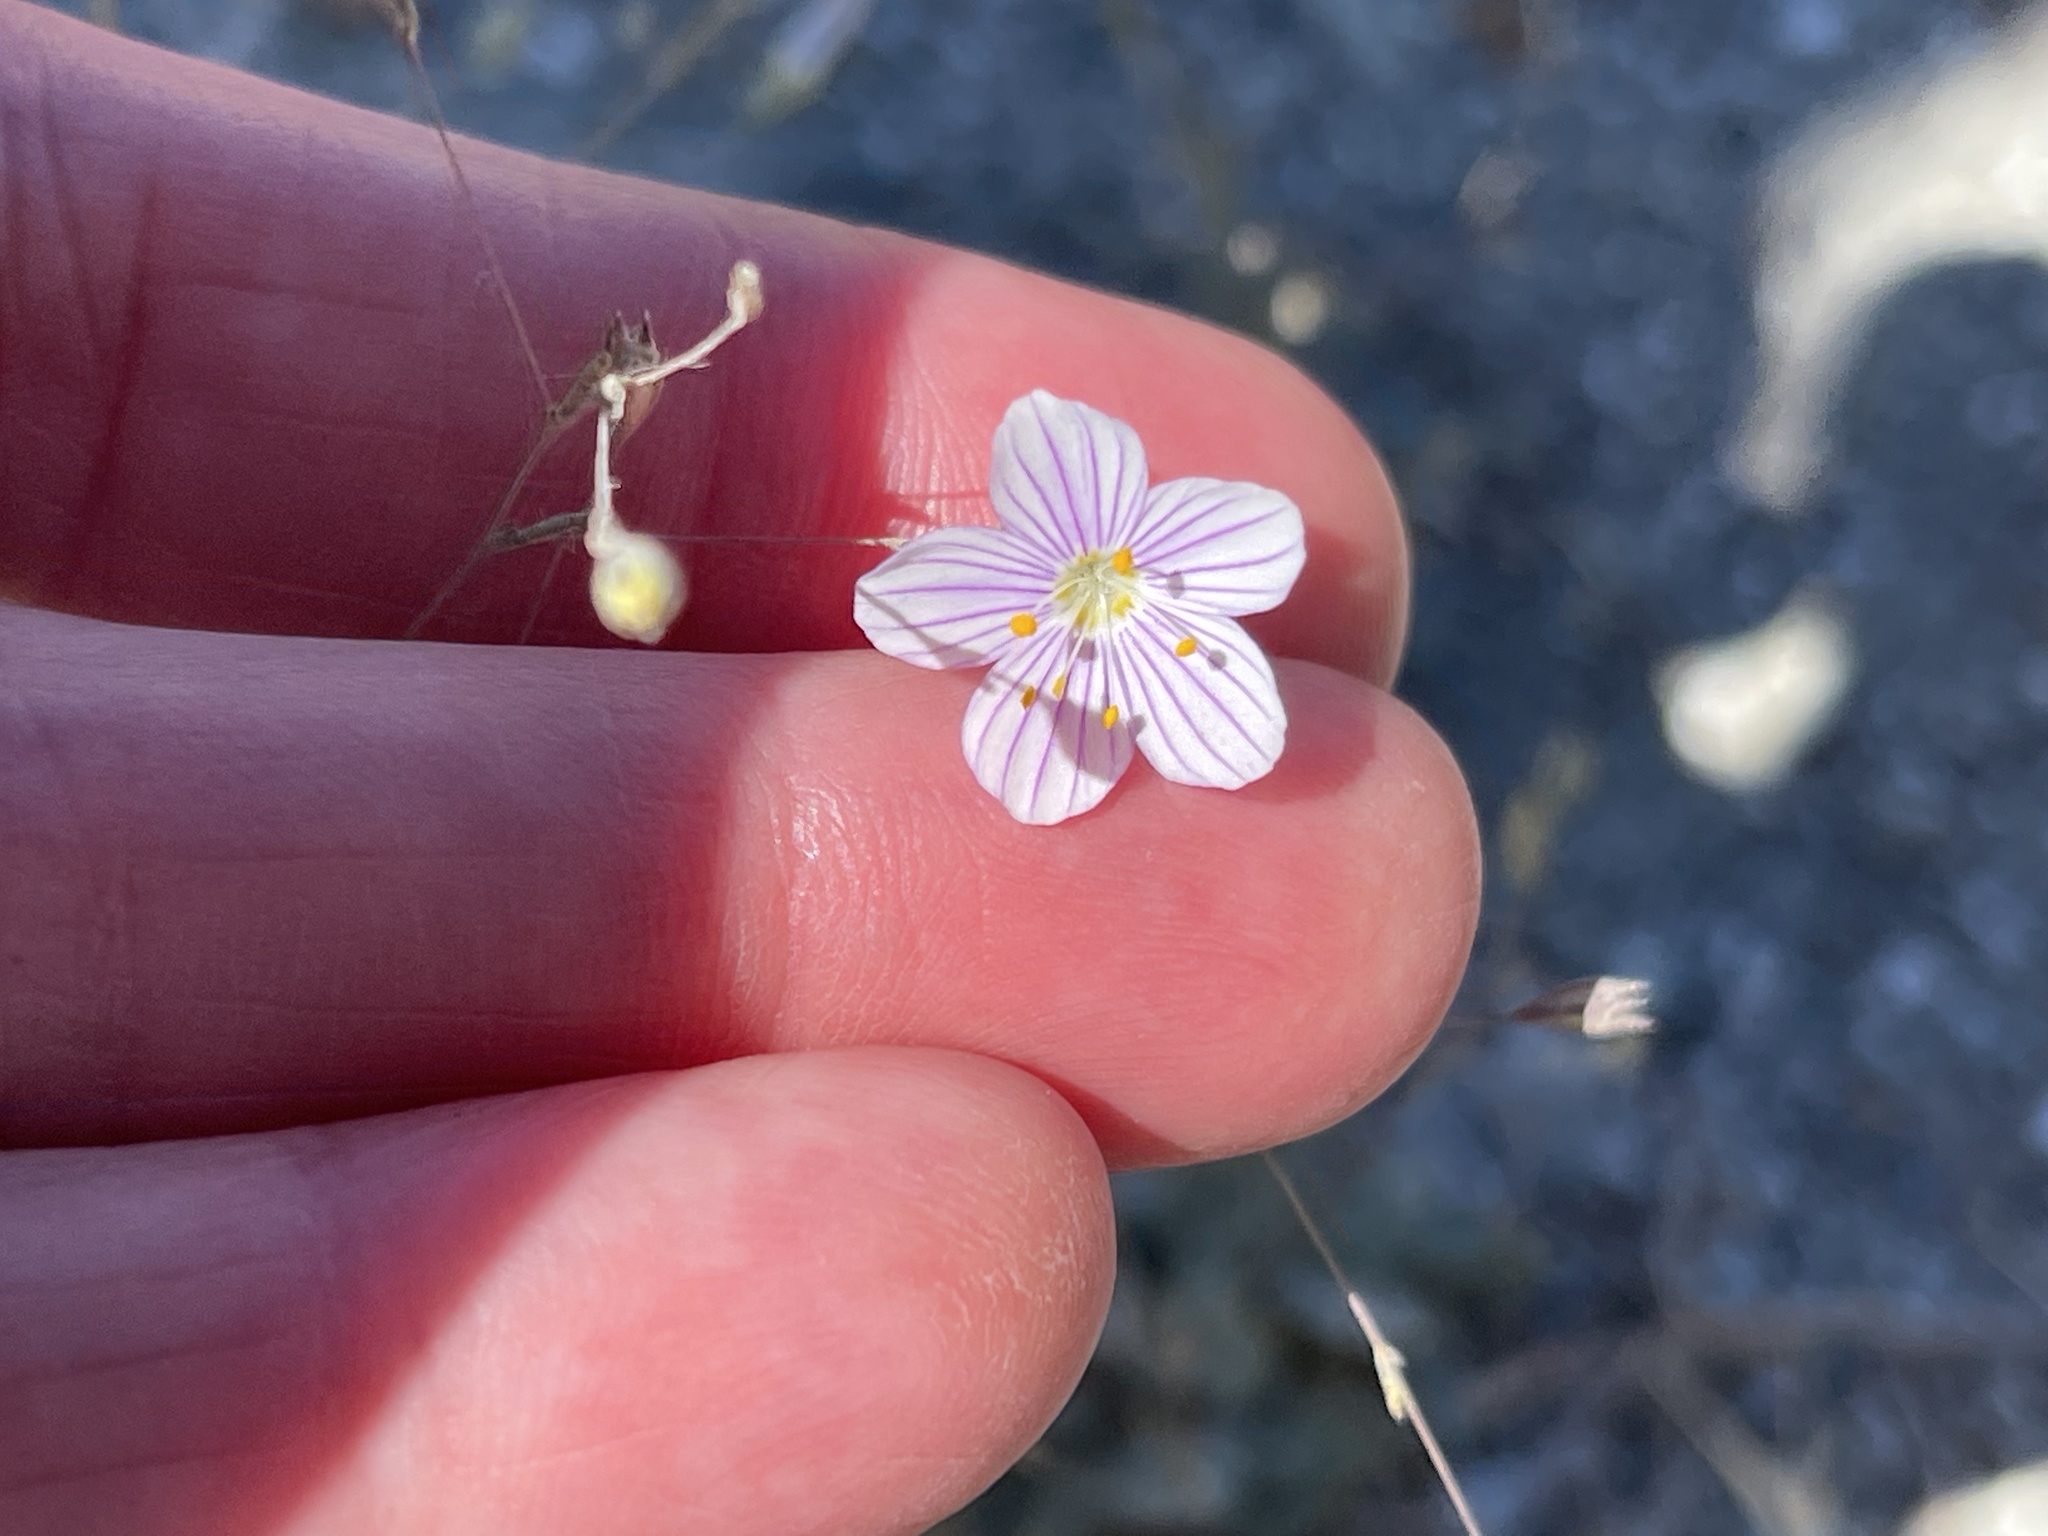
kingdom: Plantae
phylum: Tracheophyta
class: Magnoliopsida
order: Ericales
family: Polemoniaceae
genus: Leptosiphon
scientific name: Leptosiphon liniflorus
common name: Narrowflower flaxflower
